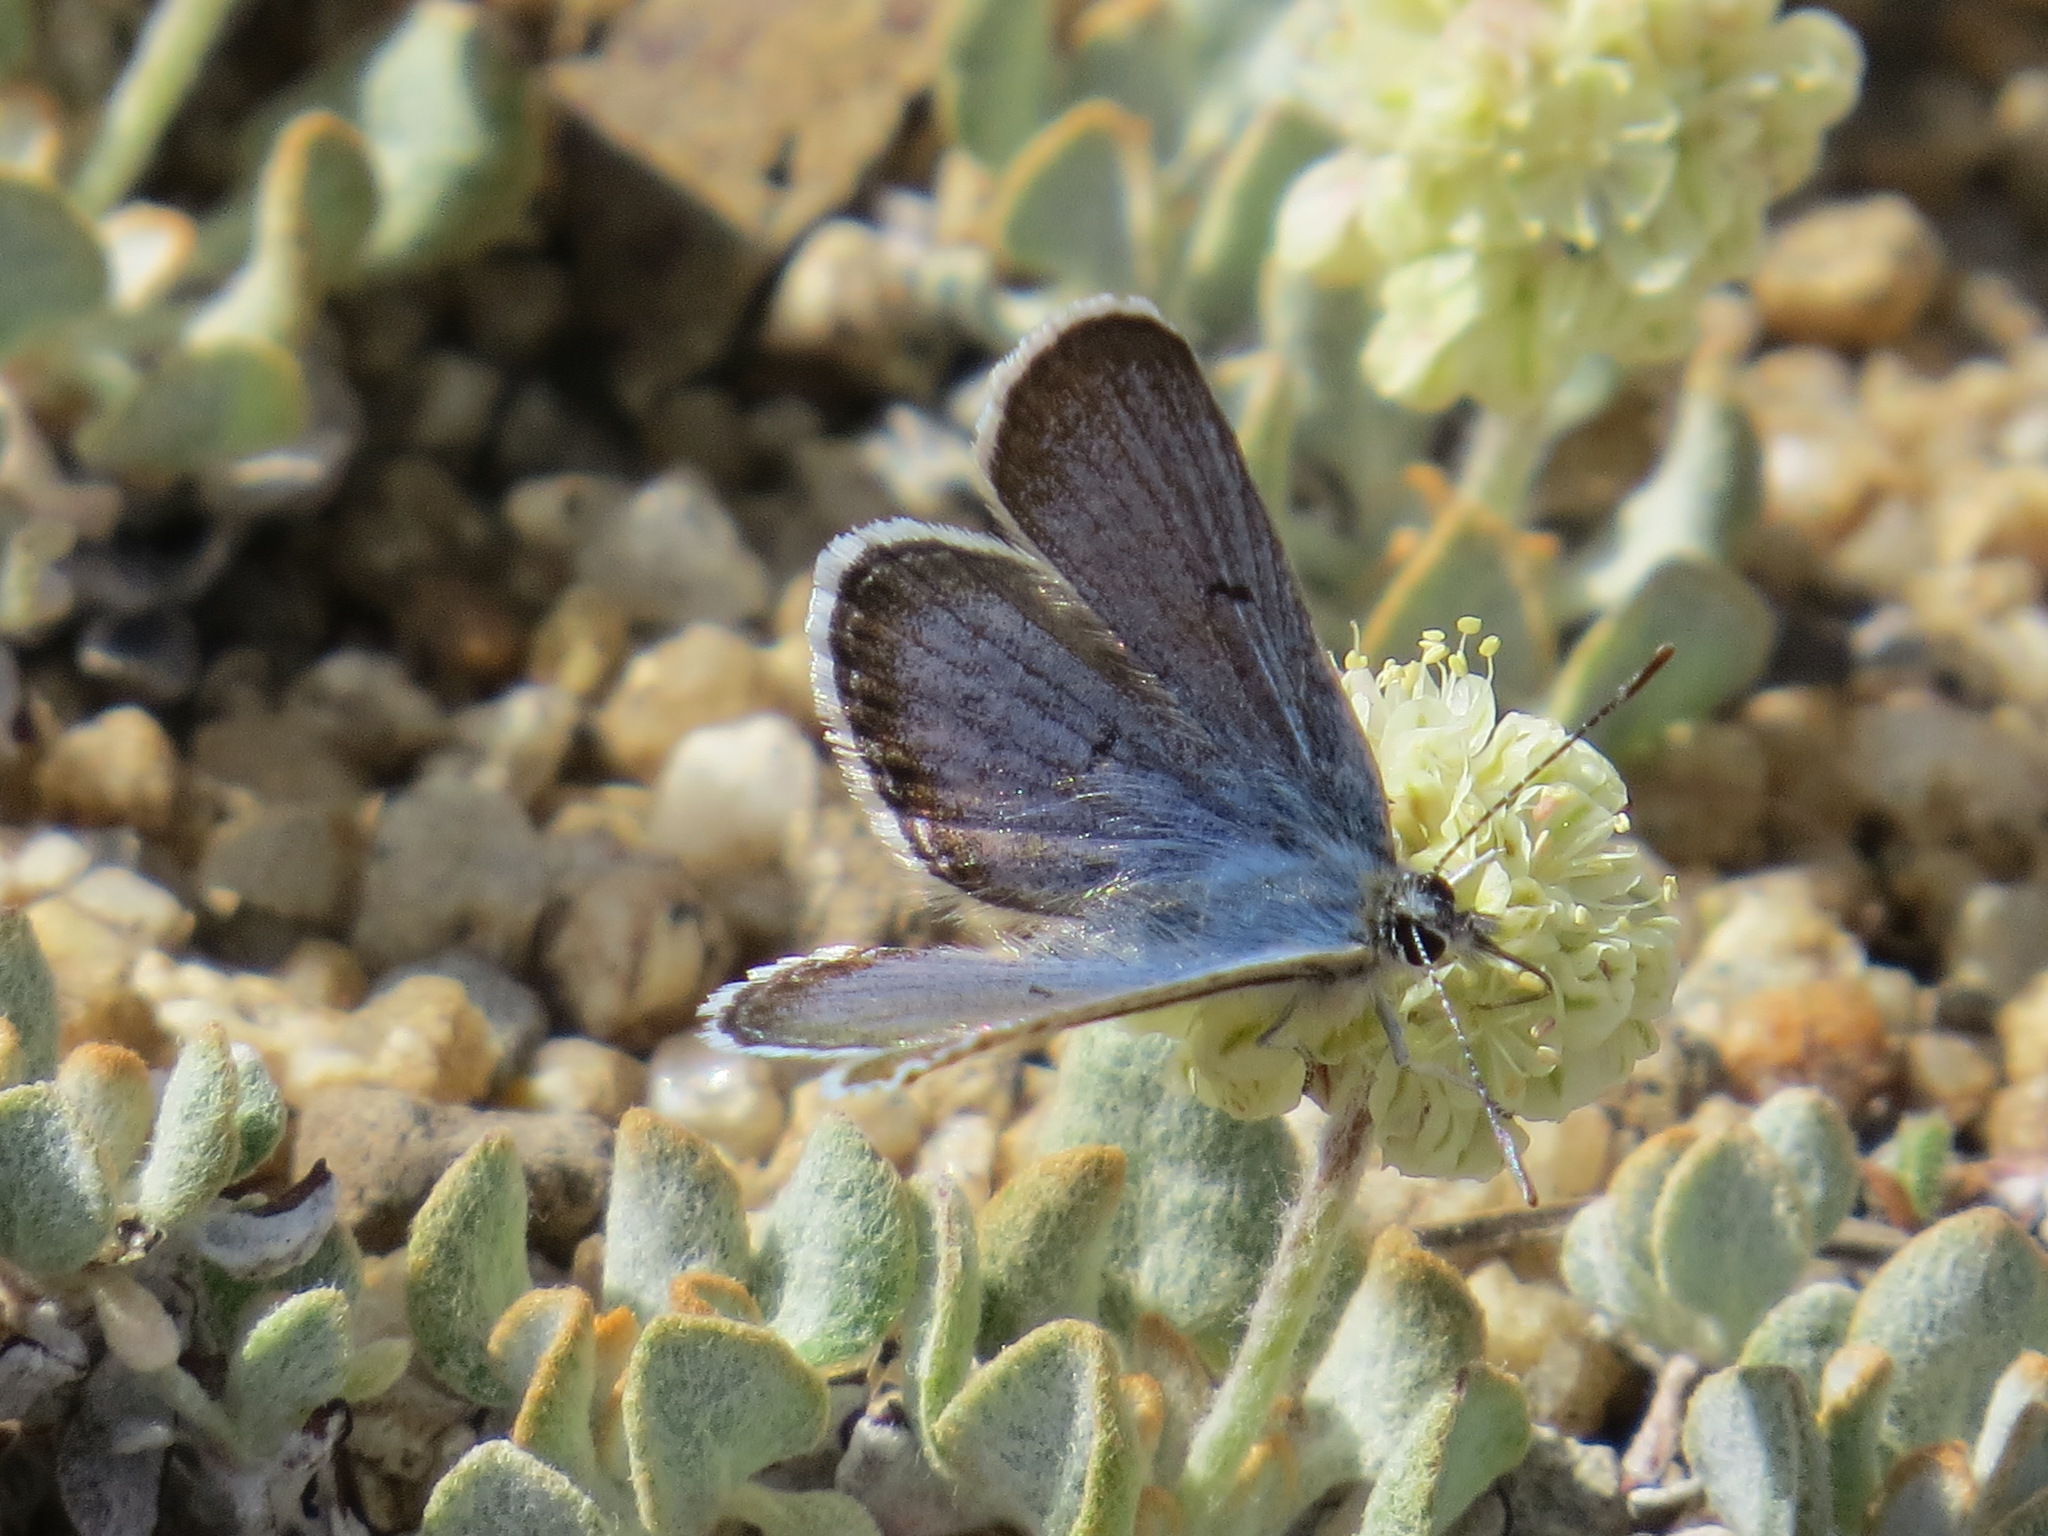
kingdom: Animalia
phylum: Arthropoda
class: Insecta
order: Lepidoptera
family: Lycaenidae
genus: Icaricia
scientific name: Icaricia shasta
